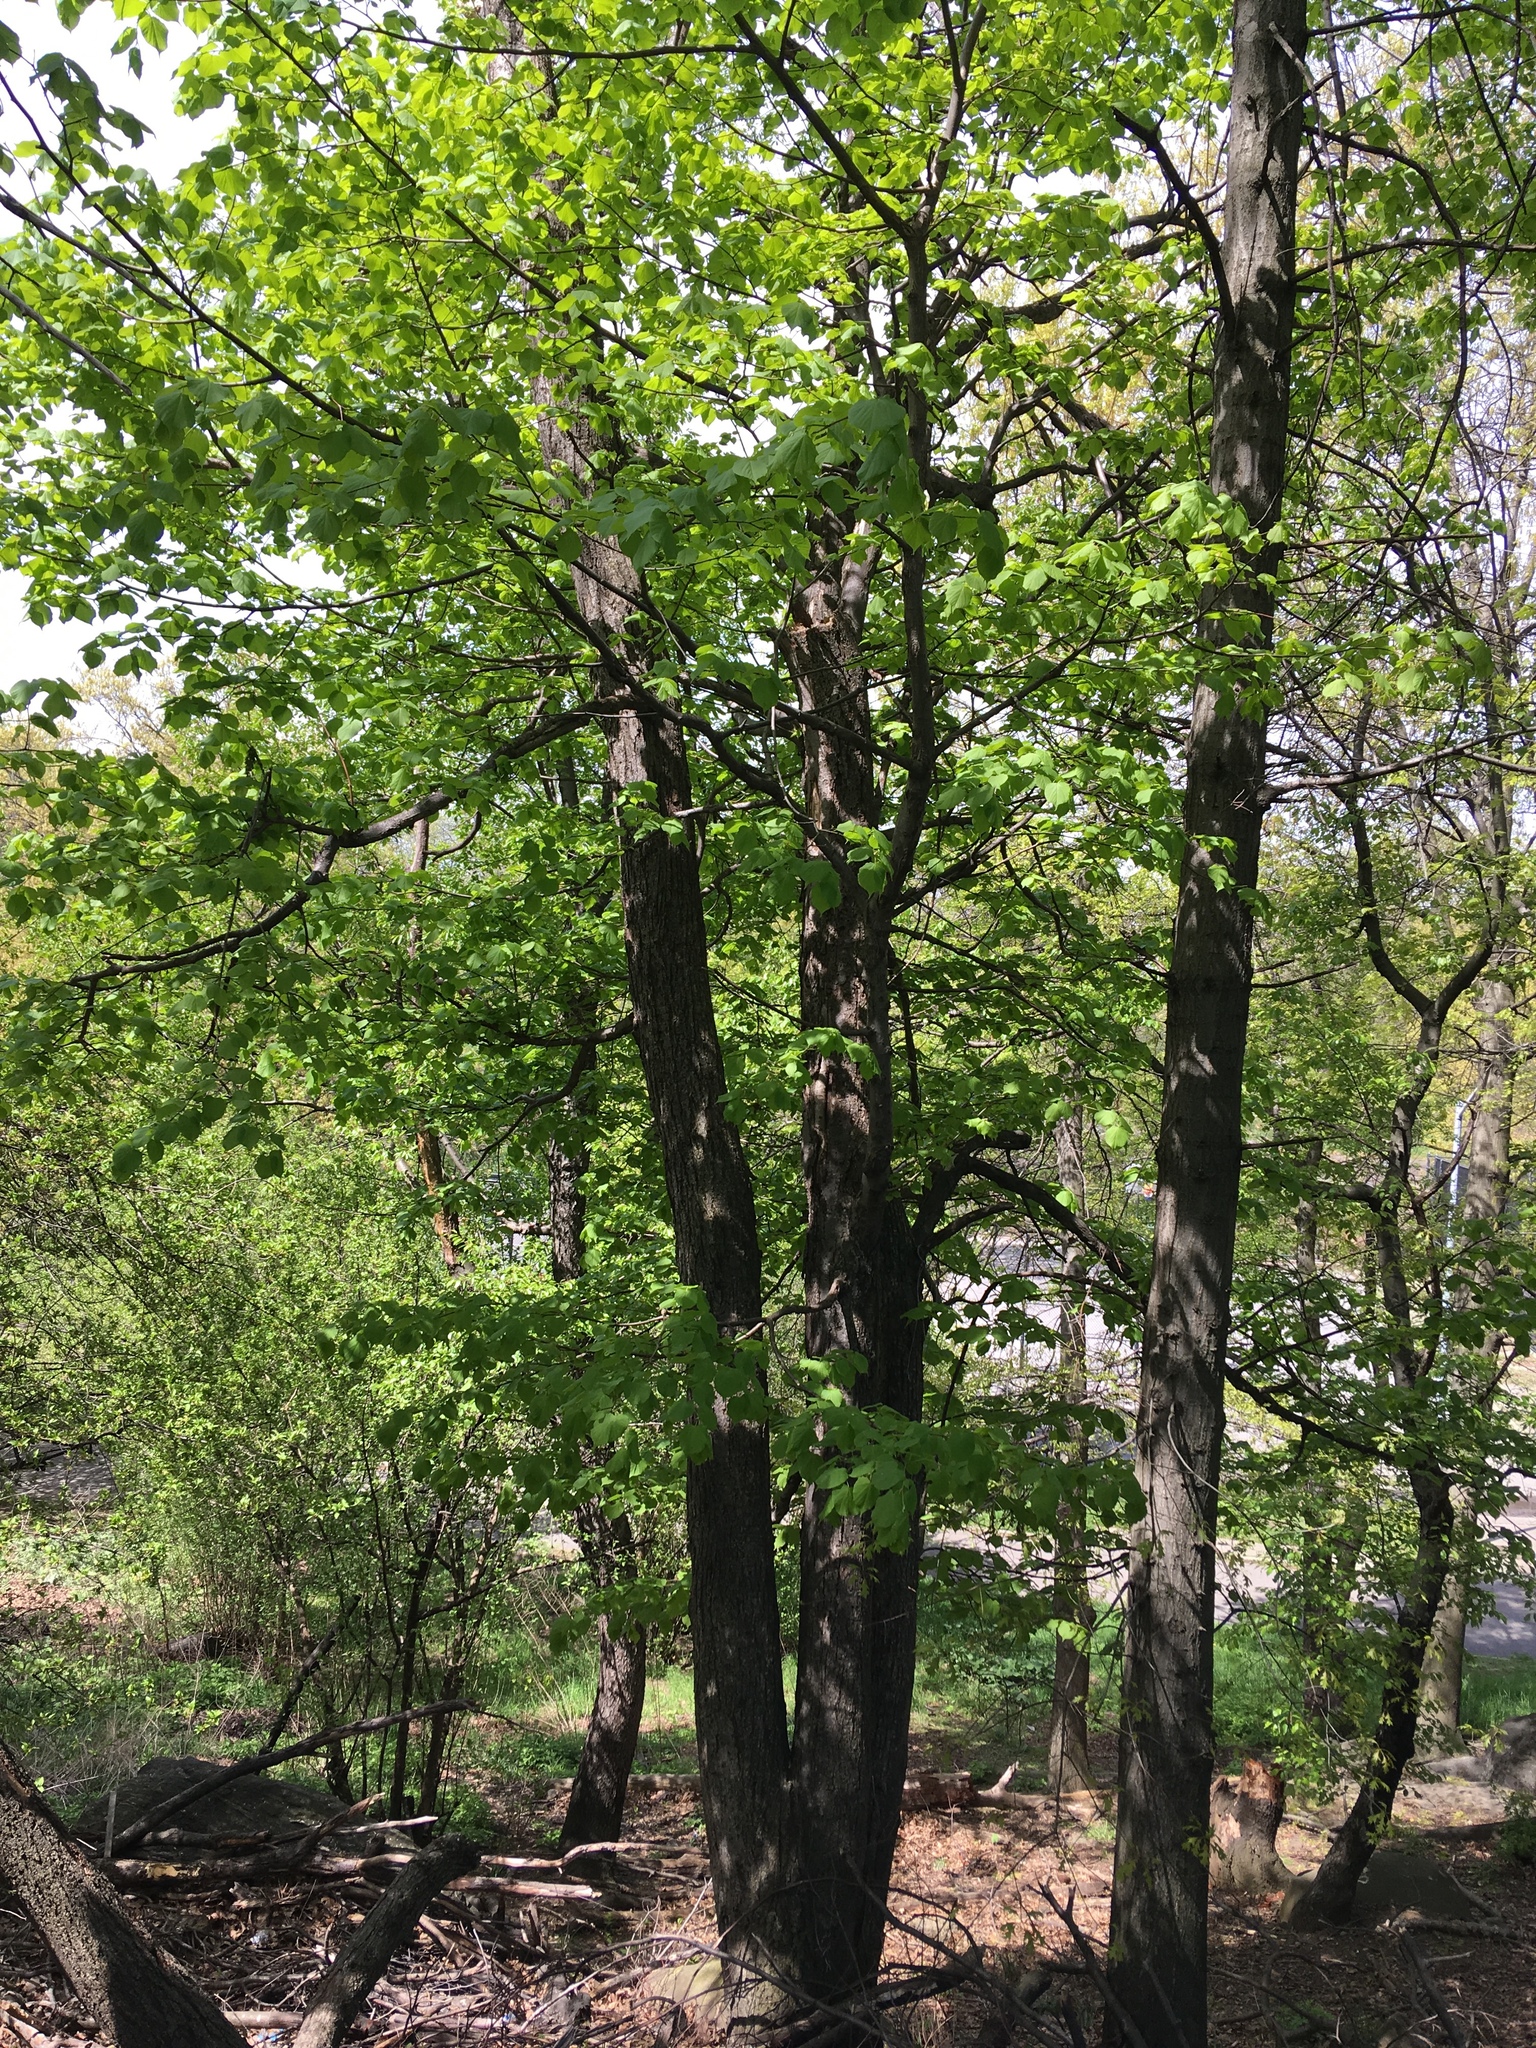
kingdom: Plantae
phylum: Tracheophyta
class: Magnoliopsida
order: Malvales
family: Malvaceae
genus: Tilia
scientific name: Tilia americana
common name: Basswood
